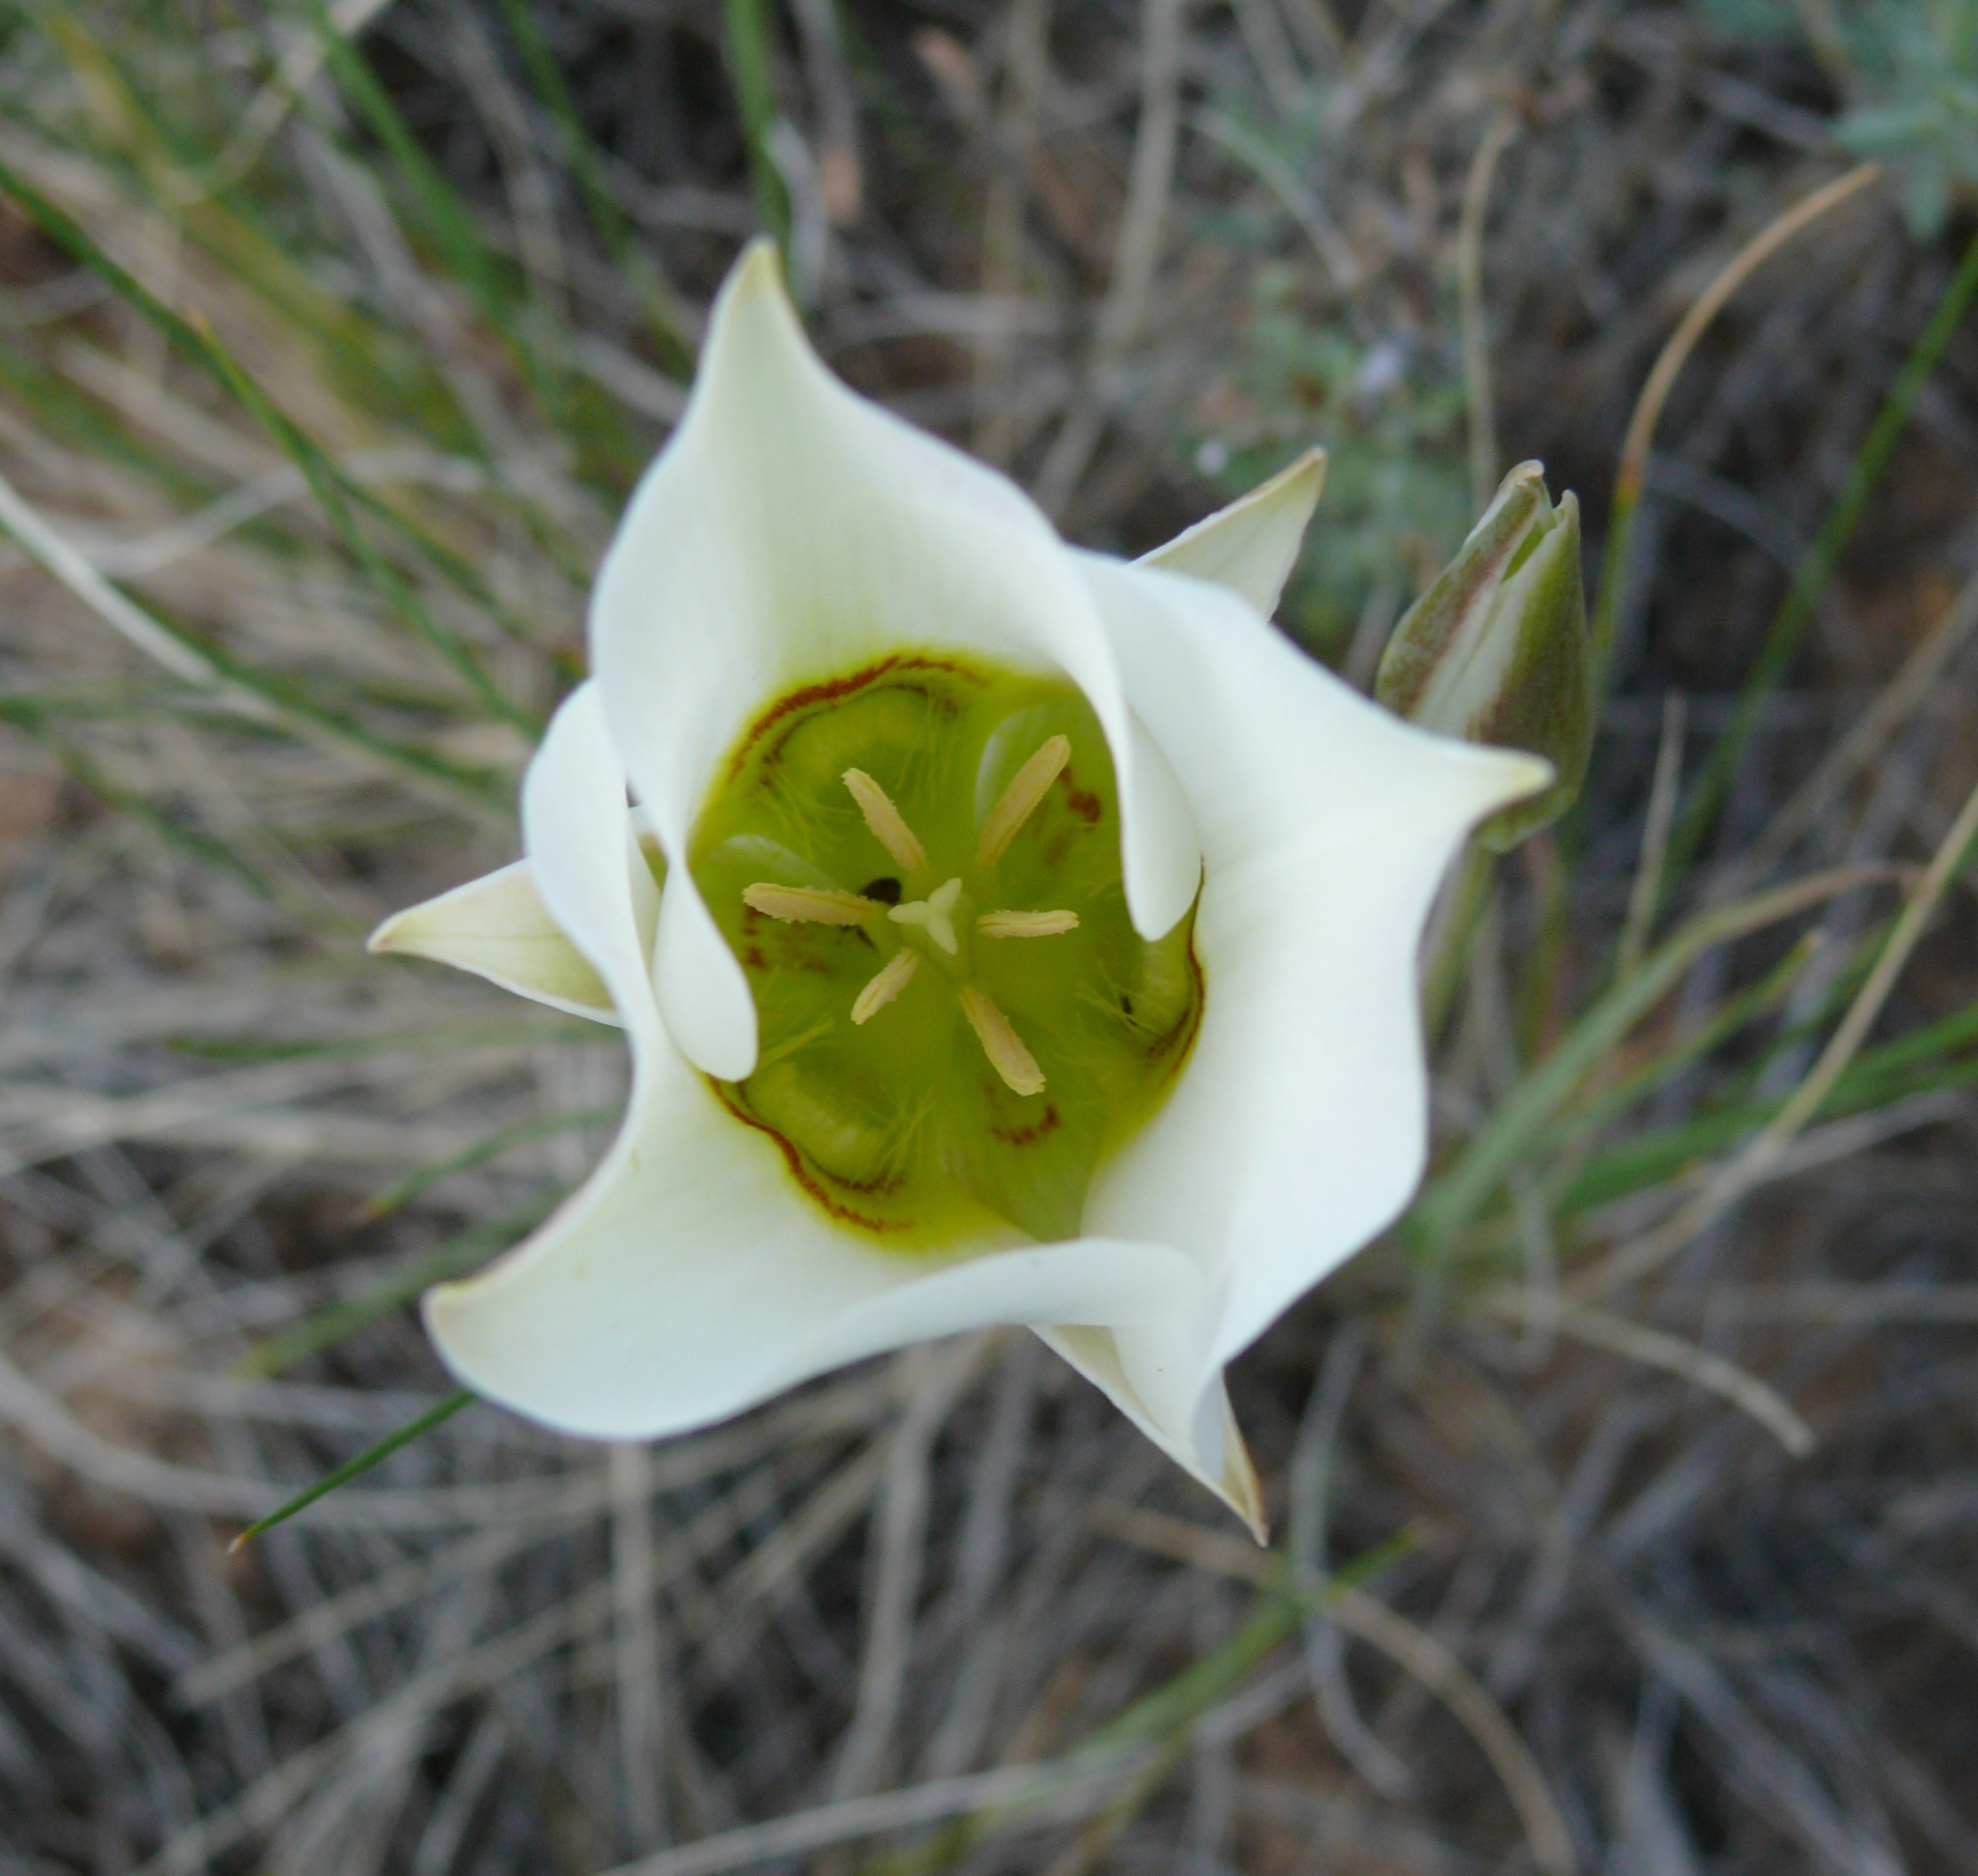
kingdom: Plantae
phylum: Tracheophyta
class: Liliopsida
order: Liliales
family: Liliaceae
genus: Calochortus
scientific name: Calochortus nuttallii
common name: Sego-lily
